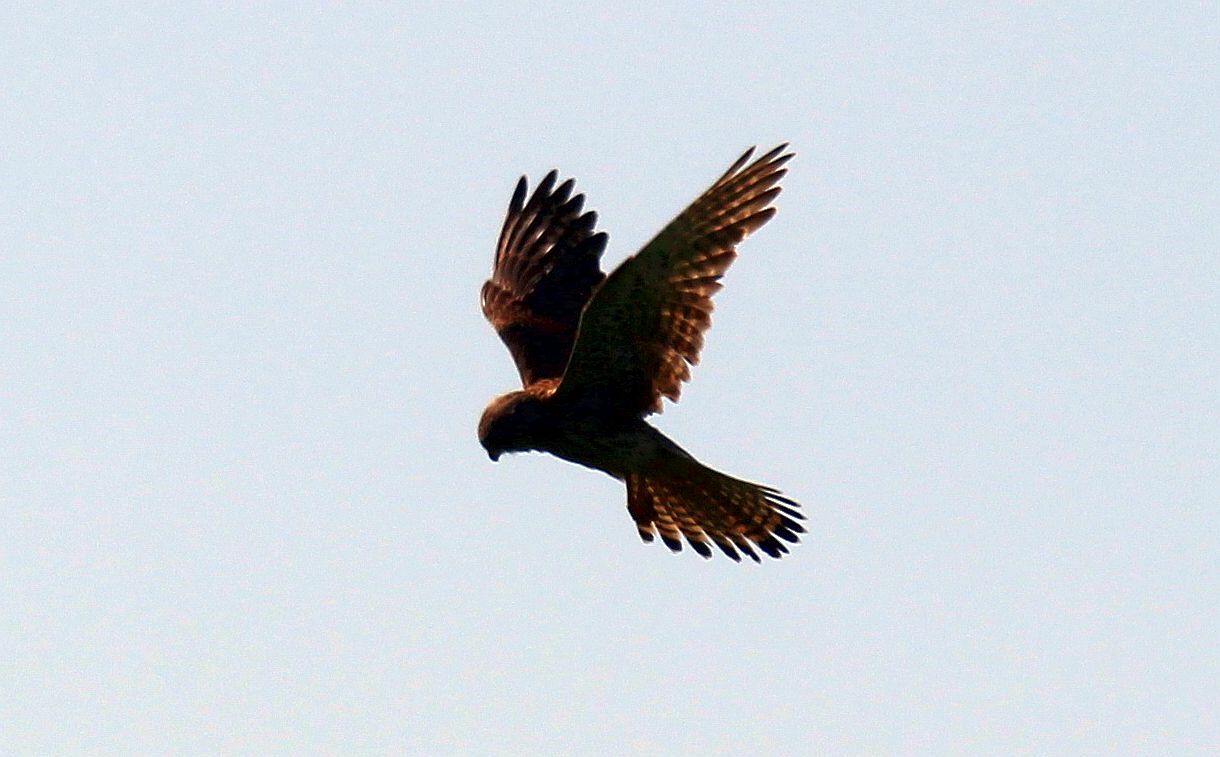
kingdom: Animalia
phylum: Chordata
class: Aves
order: Falconiformes
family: Falconidae
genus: Falco
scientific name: Falco tinnunculus
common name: Common kestrel
